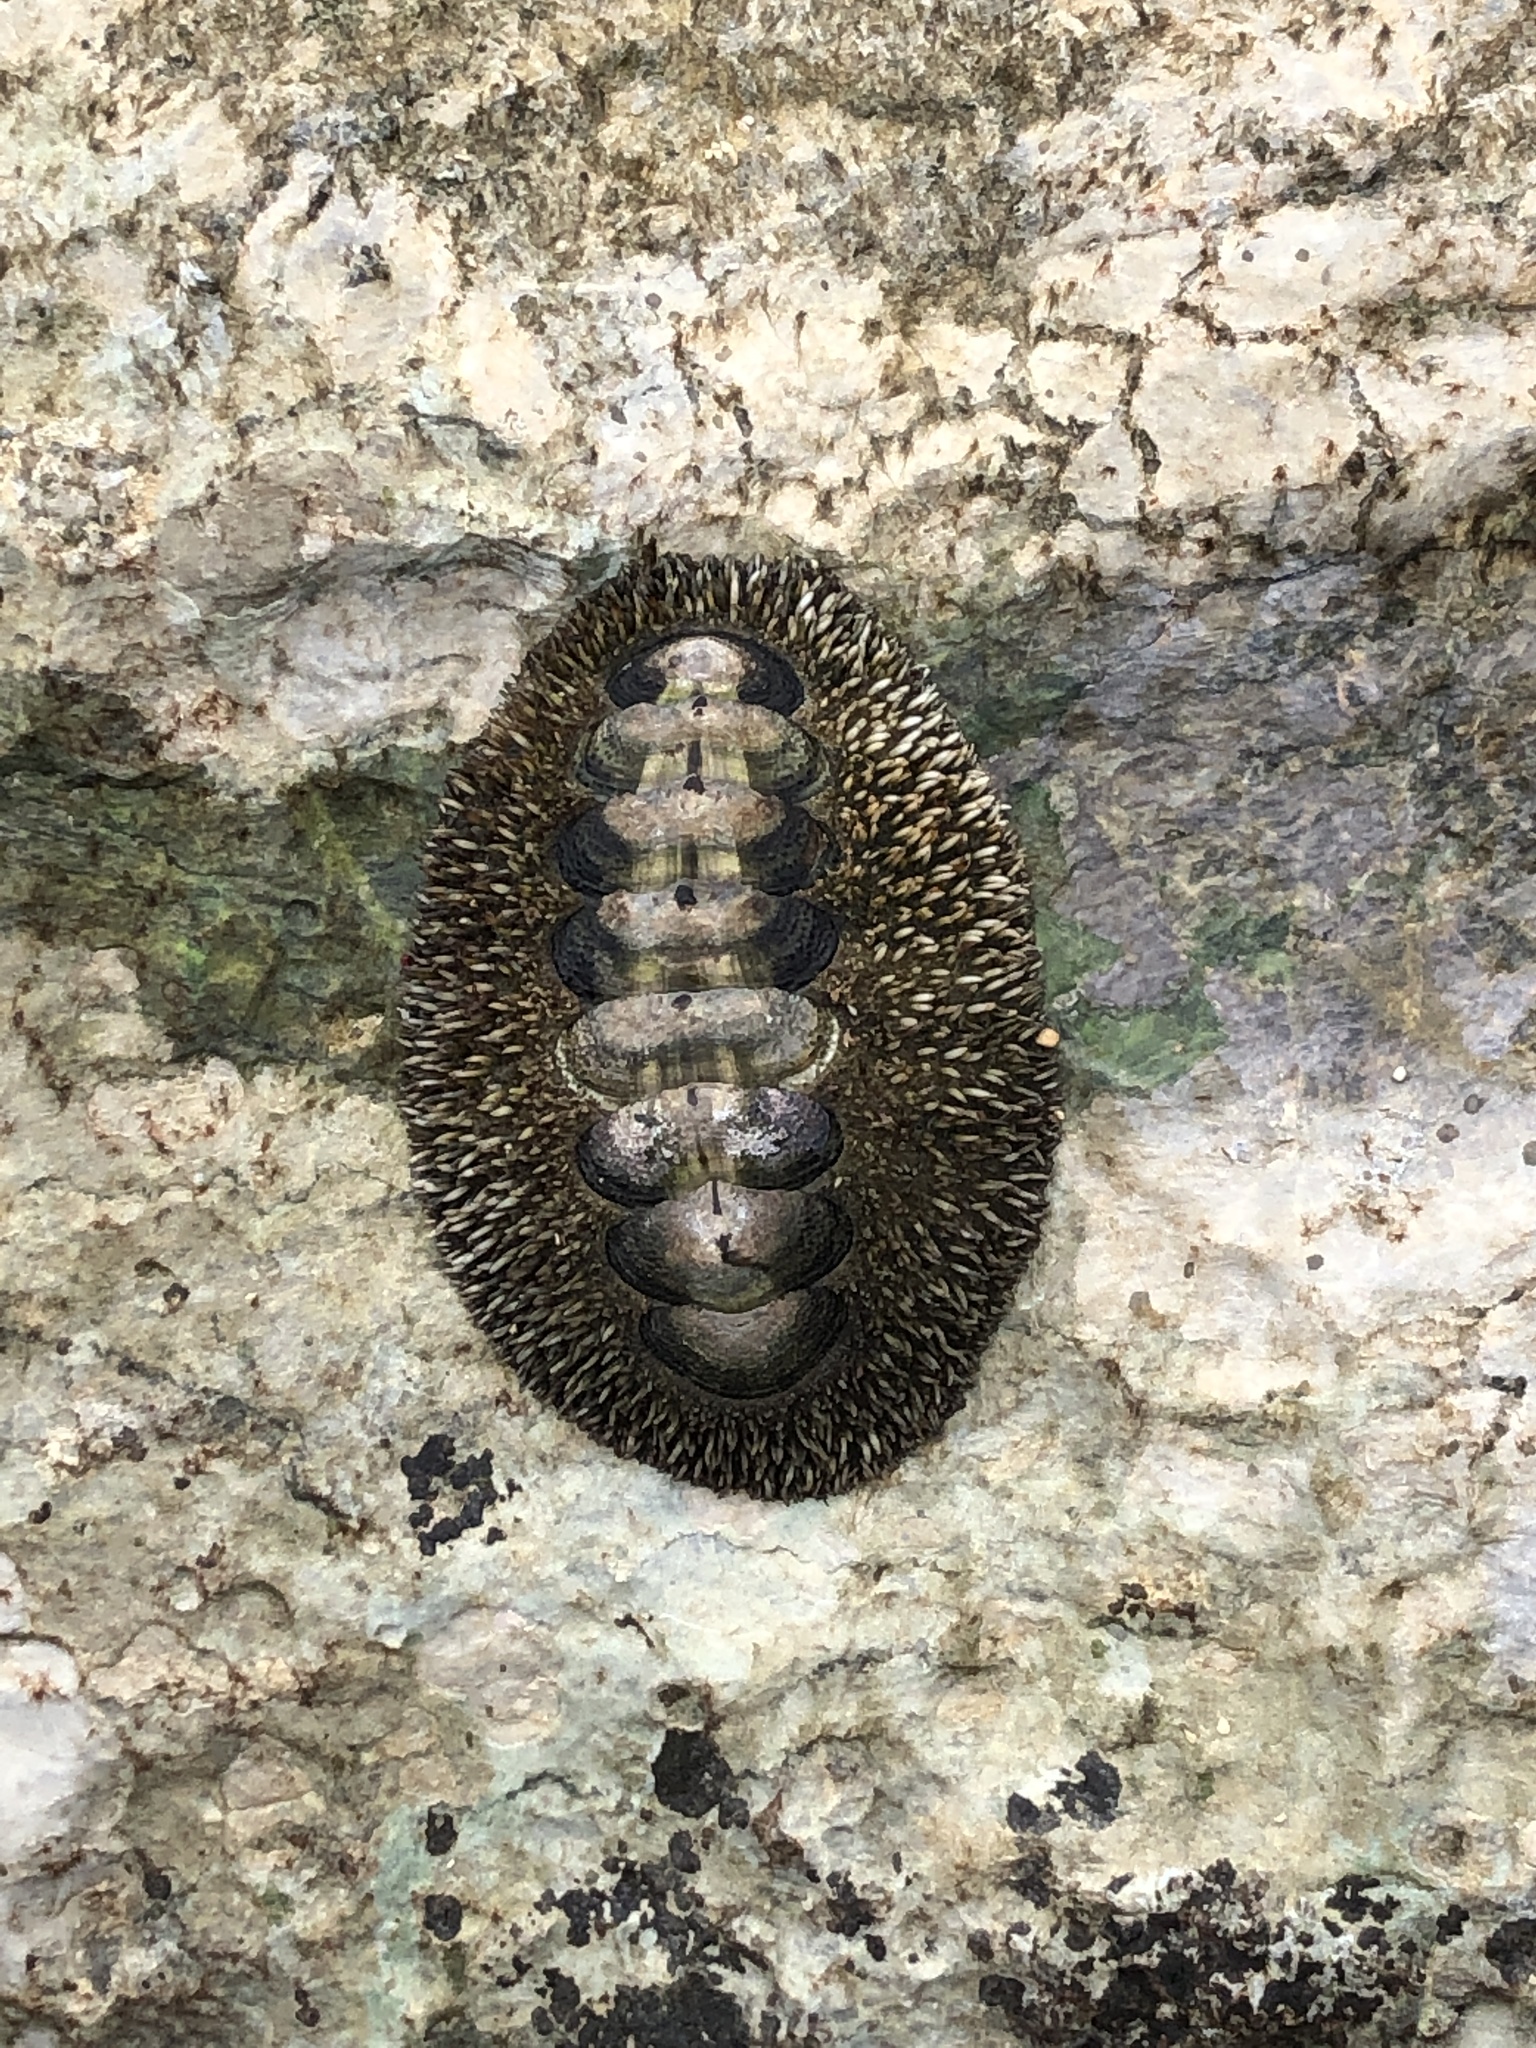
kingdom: Animalia
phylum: Mollusca
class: Polyplacophora
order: Chitonida
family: Chitonidae
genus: Acanthopleura
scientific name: Acanthopleura gemmata
